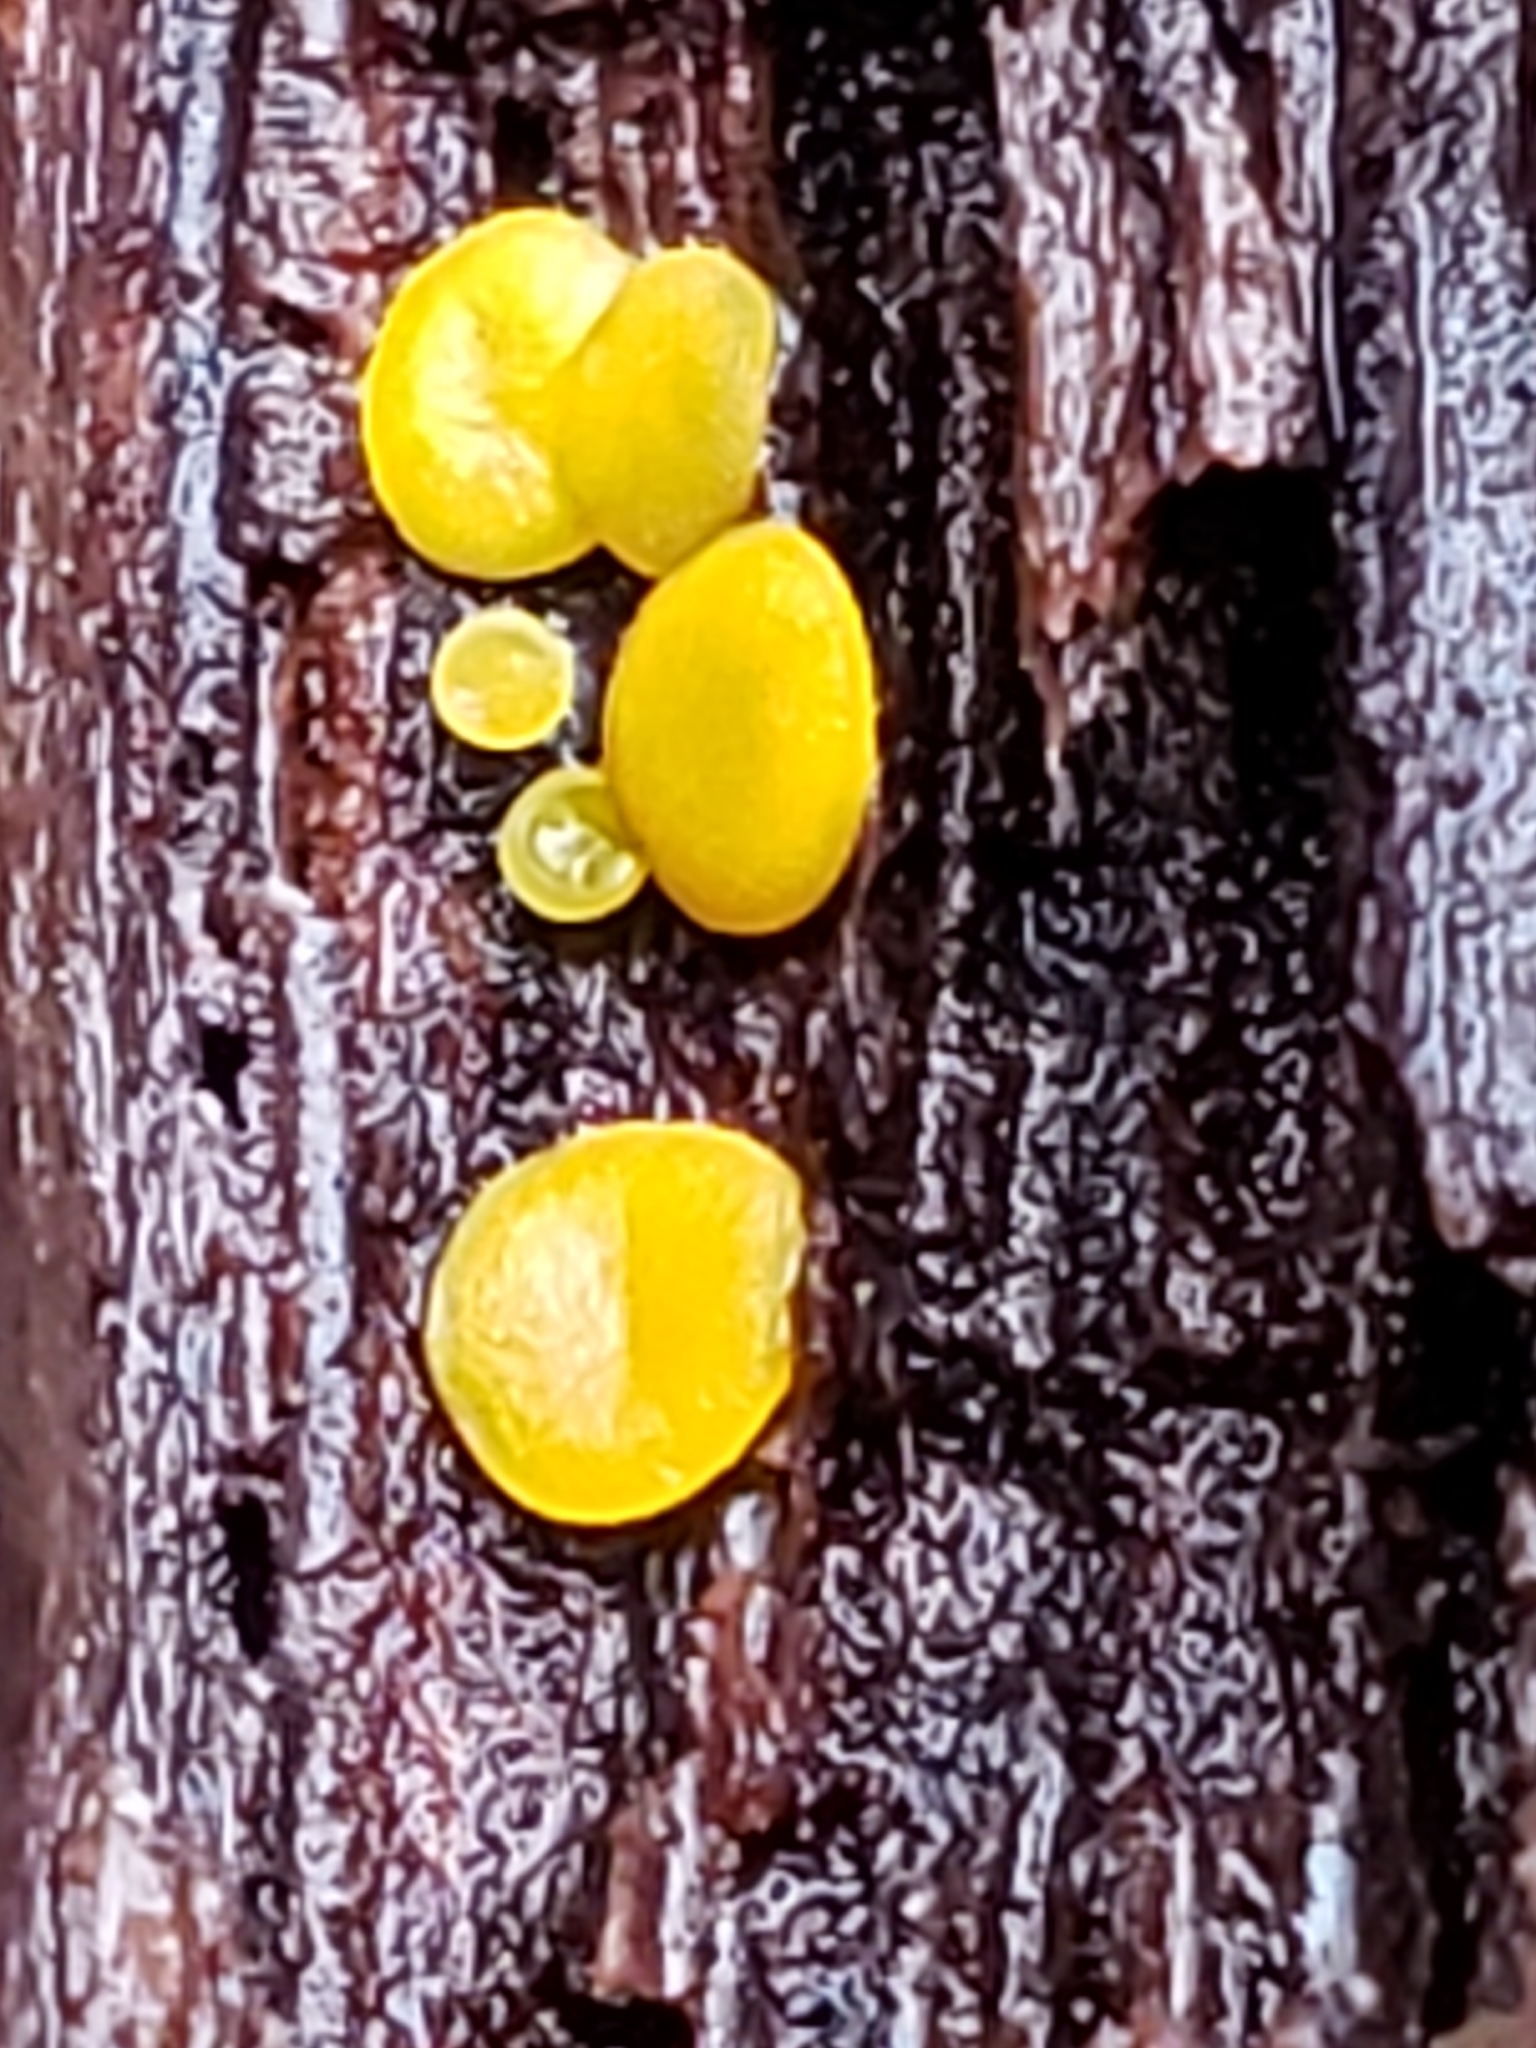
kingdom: Fungi
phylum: Ascomycota
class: Leotiomycetes
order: Helotiales
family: Pezizellaceae
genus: Calycina
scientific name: Calycina citrina
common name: Yellow fairy cups
